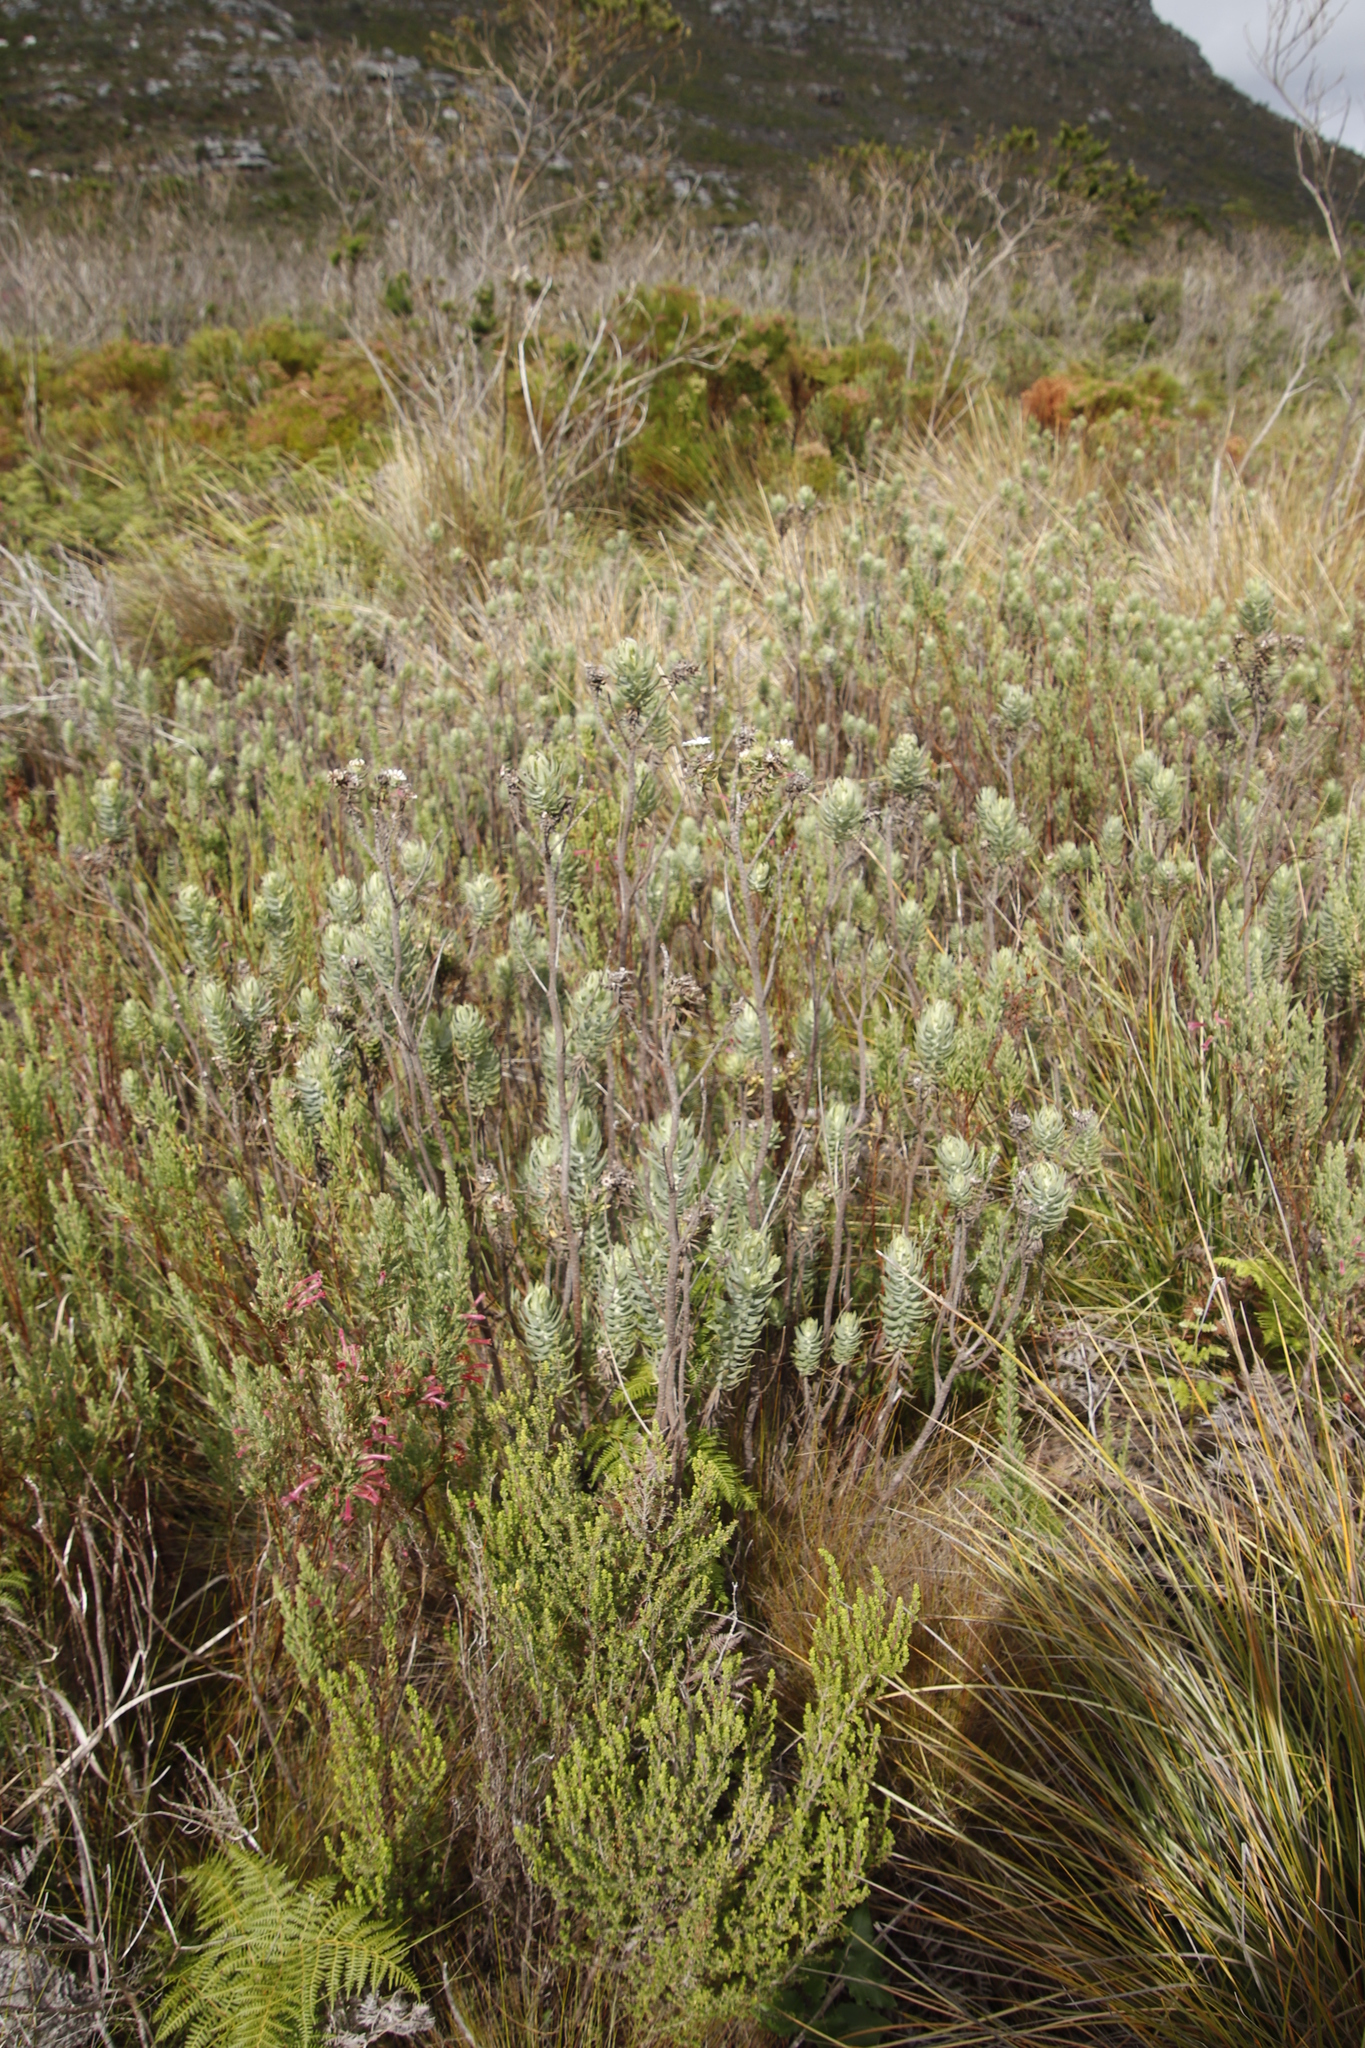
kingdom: Plantae
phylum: Tracheophyta
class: Magnoliopsida
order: Ericales
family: Ericaceae
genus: Erica
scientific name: Erica curviflora
